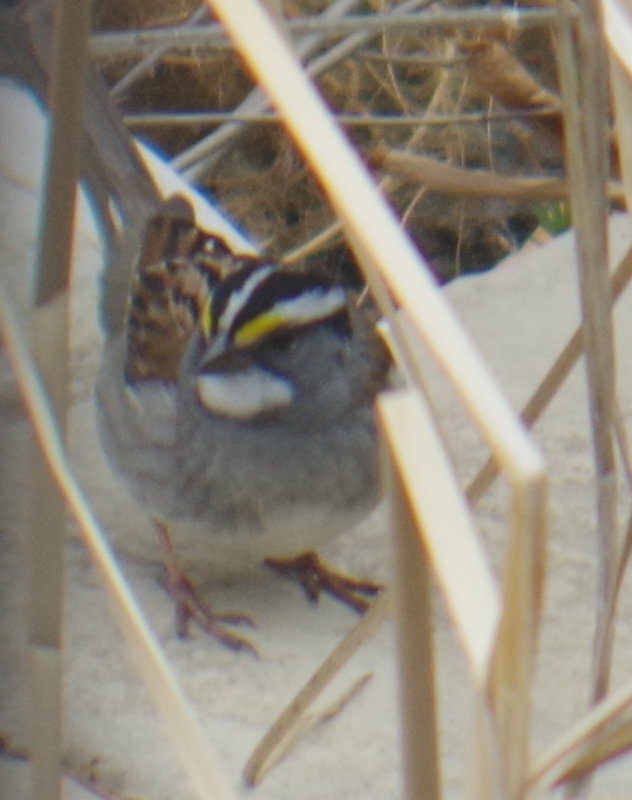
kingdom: Animalia
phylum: Chordata
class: Aves
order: Passeriformes
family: Passerellidae
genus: Zonotrichia
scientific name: Zonotrichia albicollis
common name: White-throated sparrow
